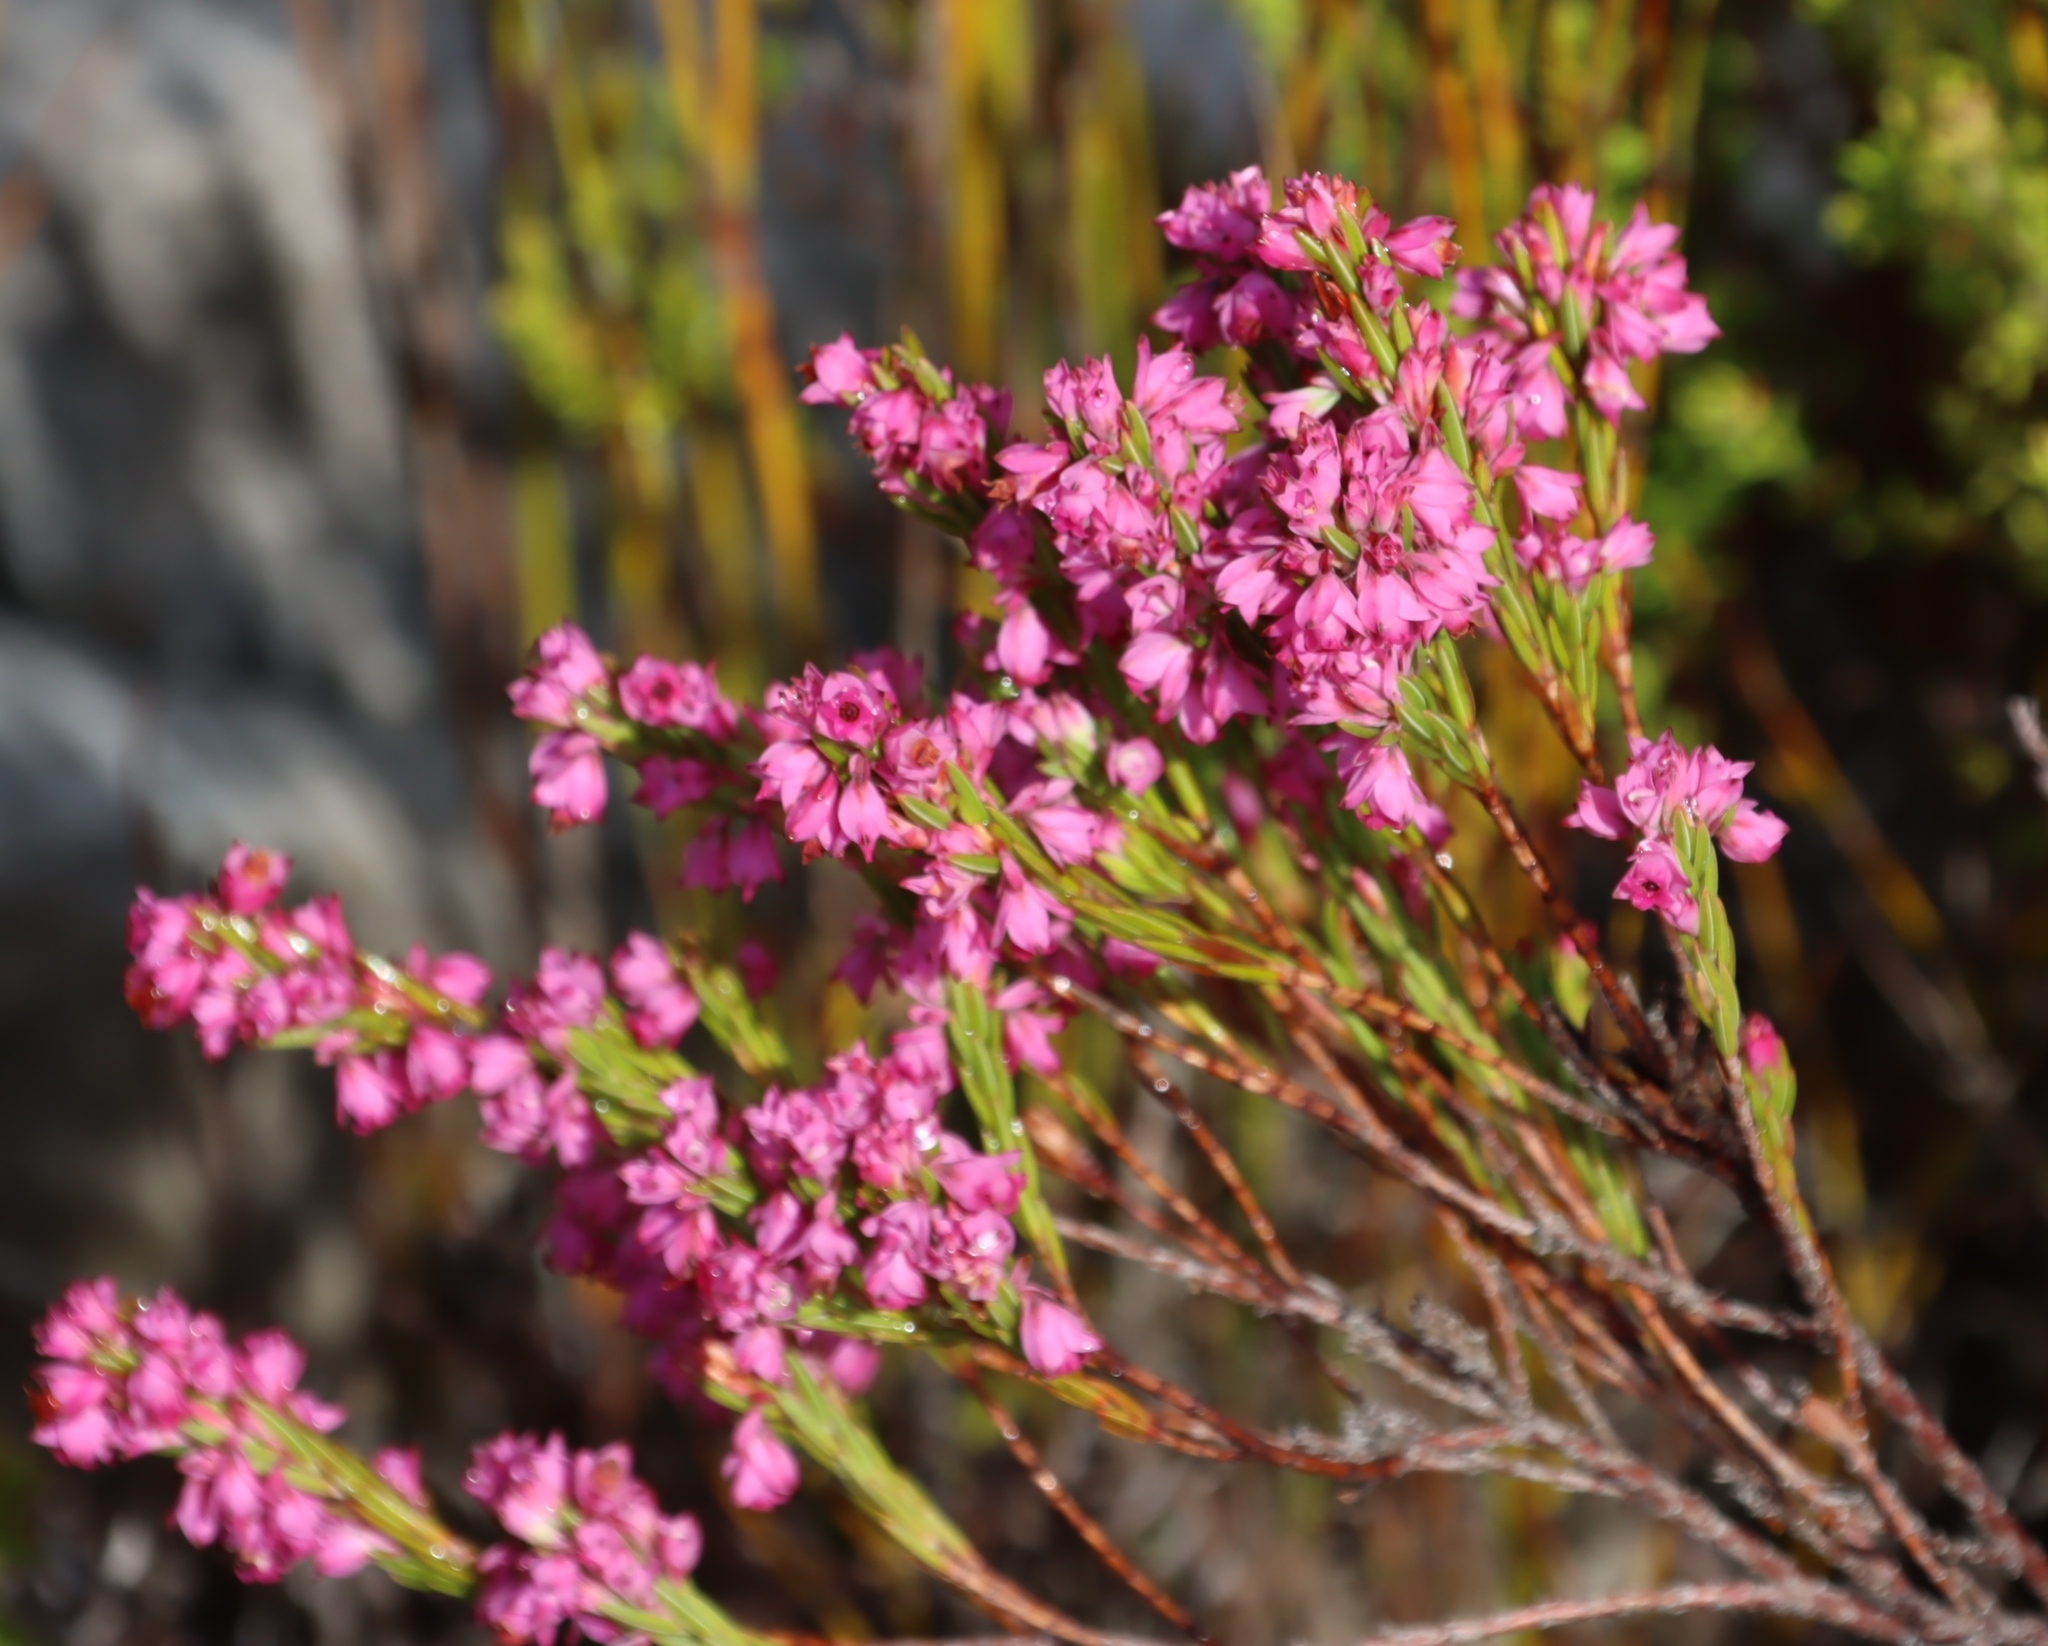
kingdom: Plantae
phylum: Tracheophyta
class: Magnoliopsida
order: Ericales
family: Ericaceae
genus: Erica
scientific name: Erica corifolia
